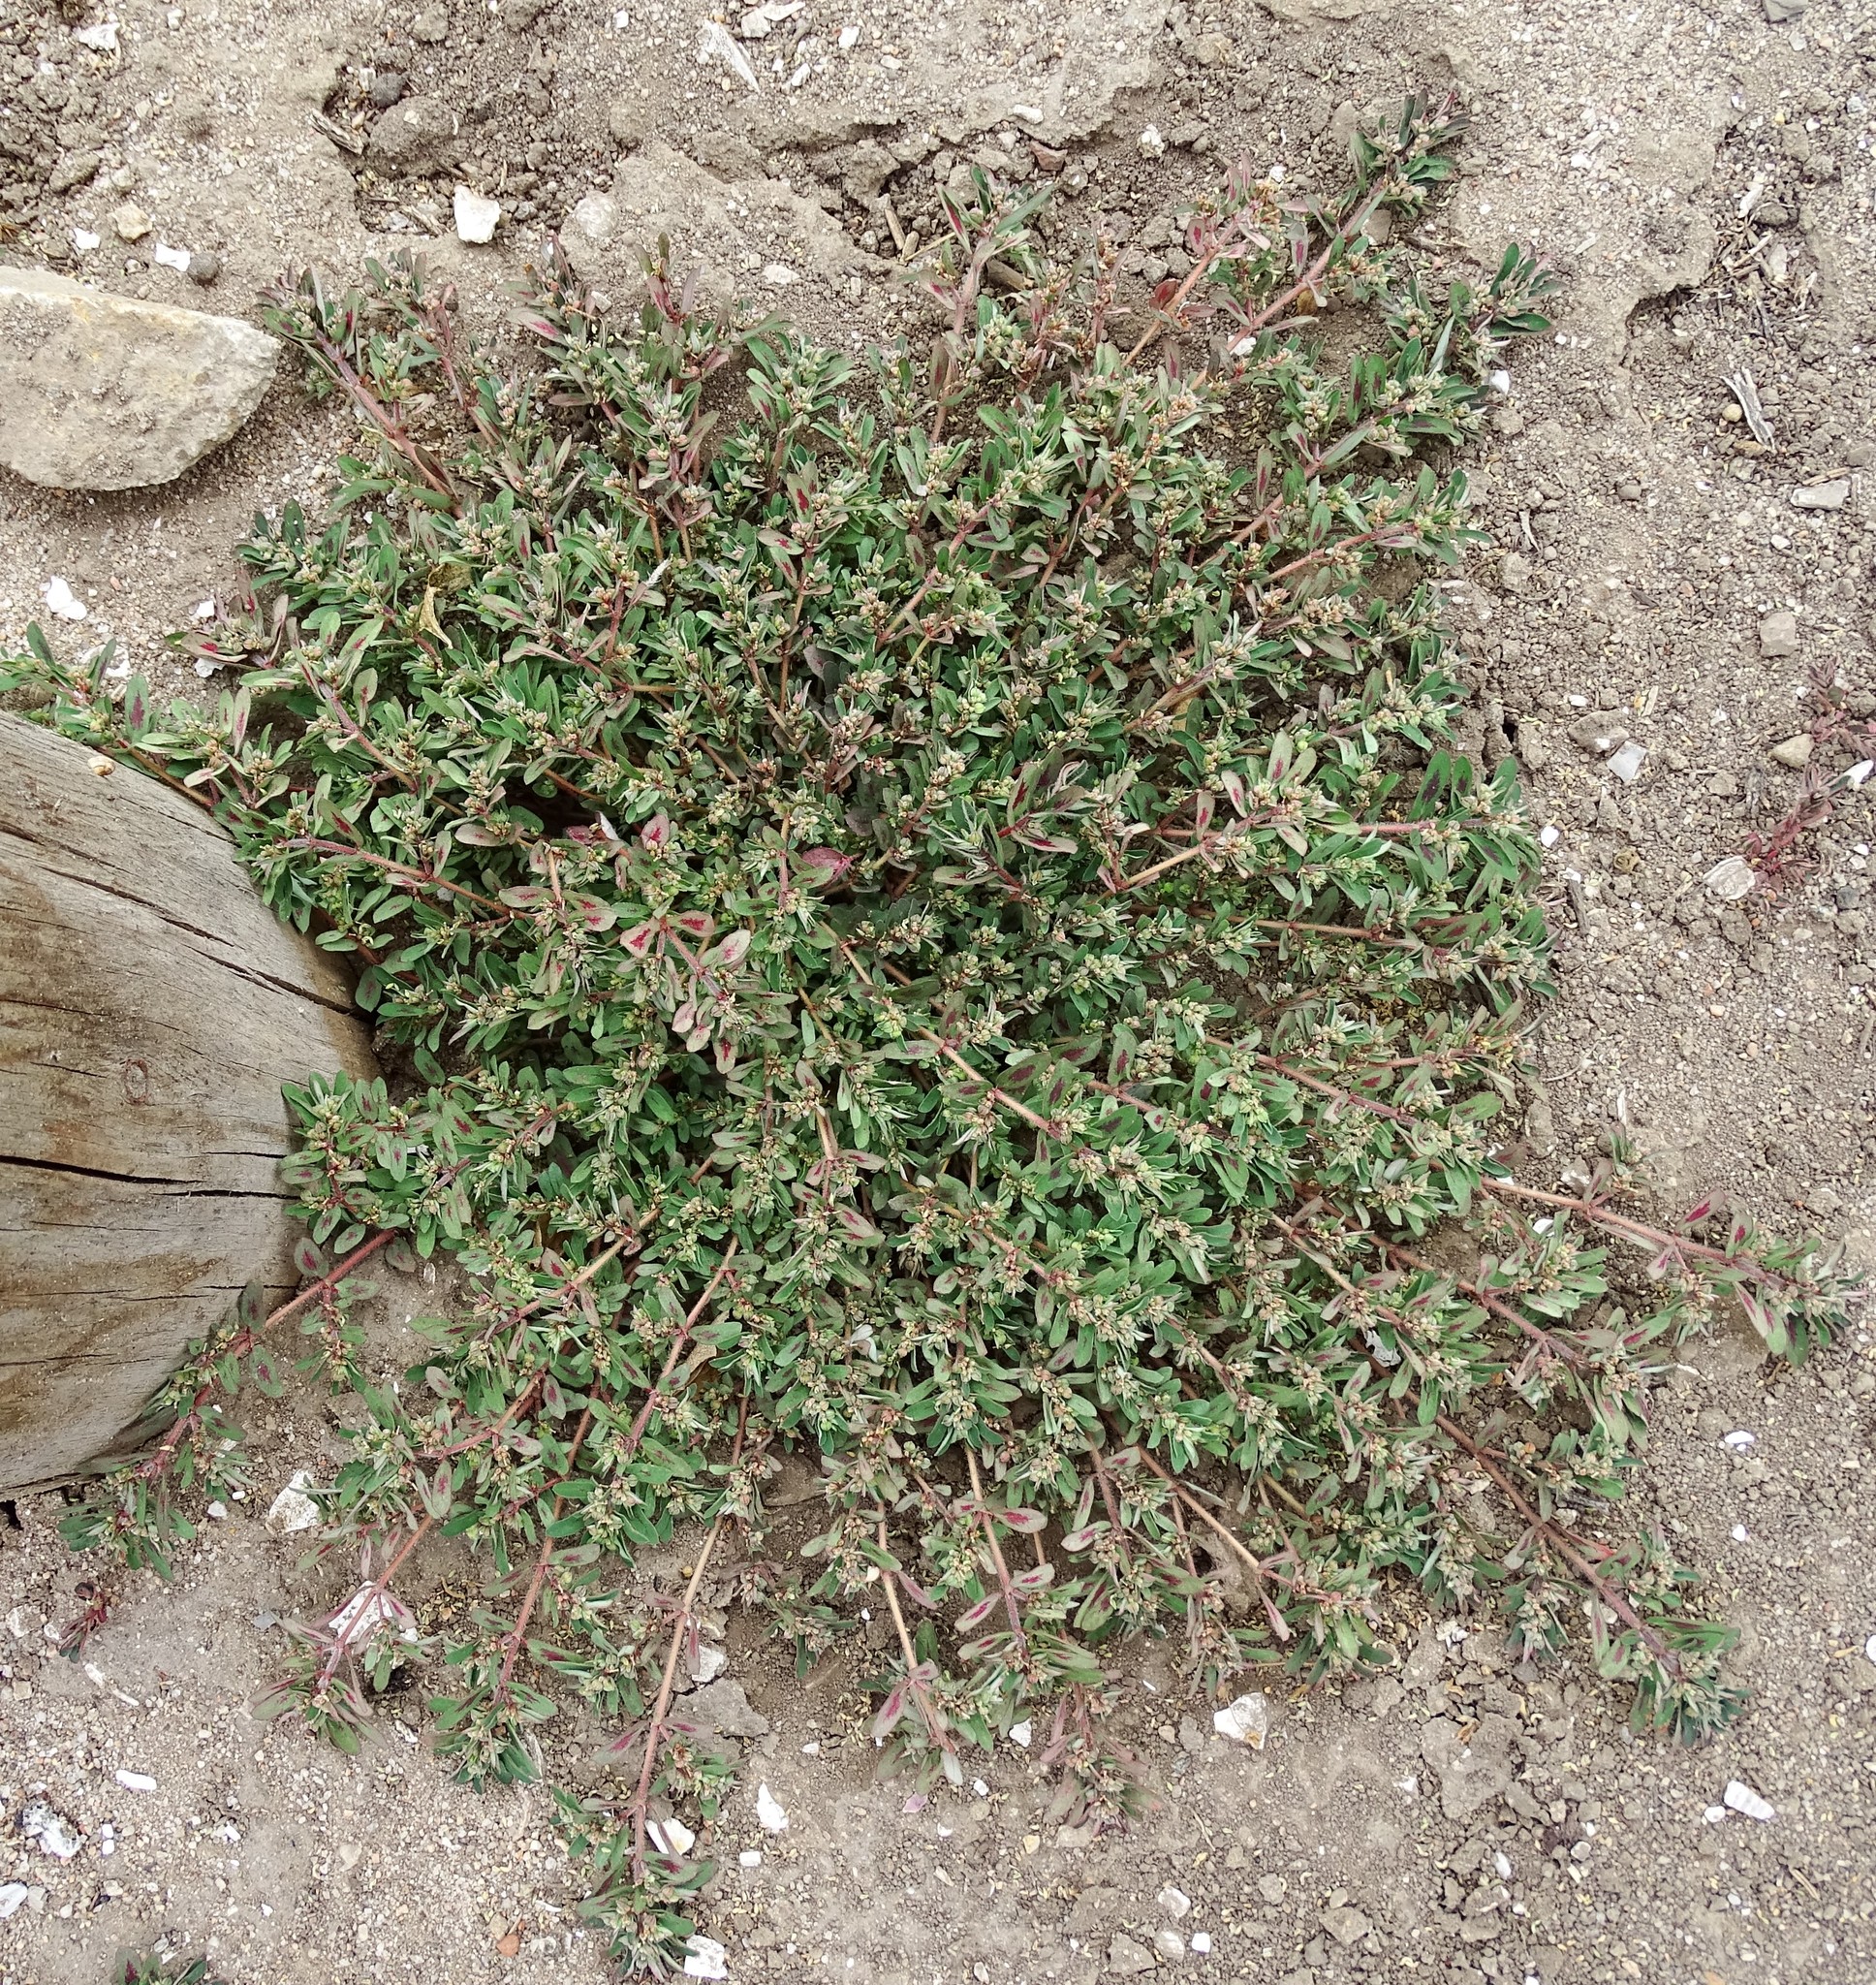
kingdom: Plantae
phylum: Tracheophyta
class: Magnoliopsida
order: Malpighiales
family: Euphorbiaceae
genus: Euphorbia
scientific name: Euphorbia maculata
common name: Spotted spurge
